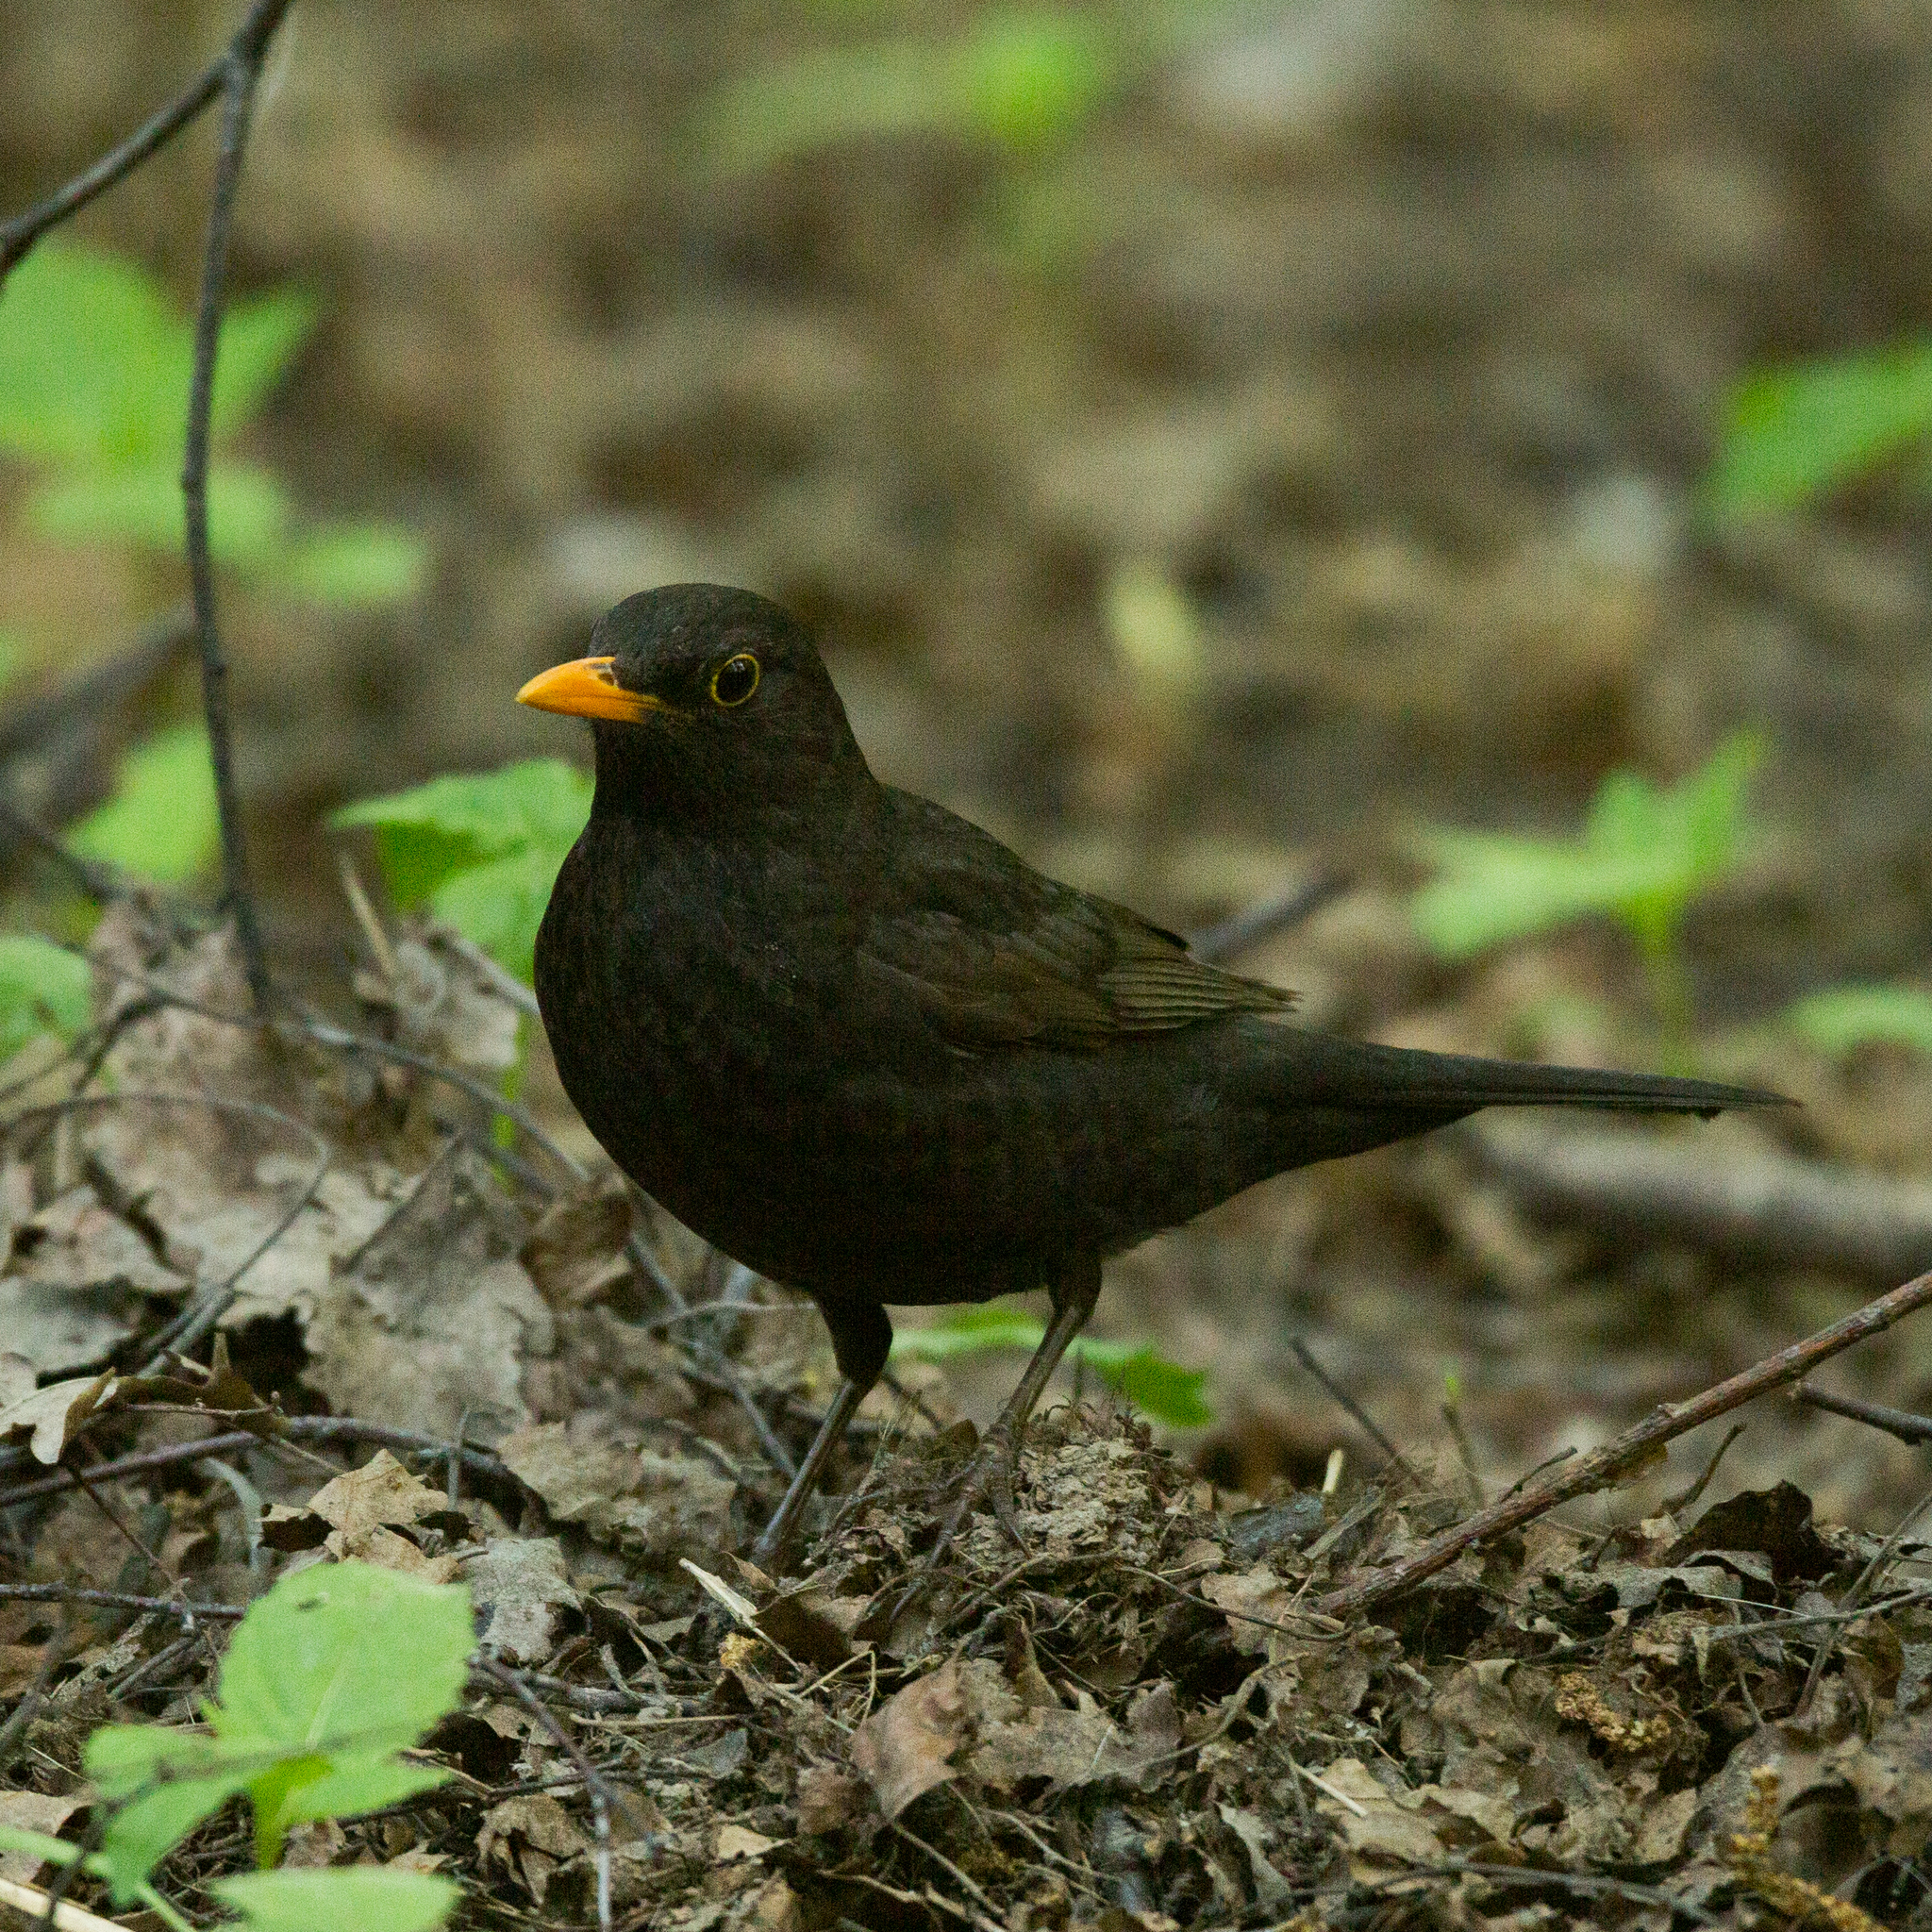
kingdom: Animalia
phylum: Chordata
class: Aves
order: Passeriformes
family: Turdidae
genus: Turdus
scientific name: Turdus merula
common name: Common blackbird
